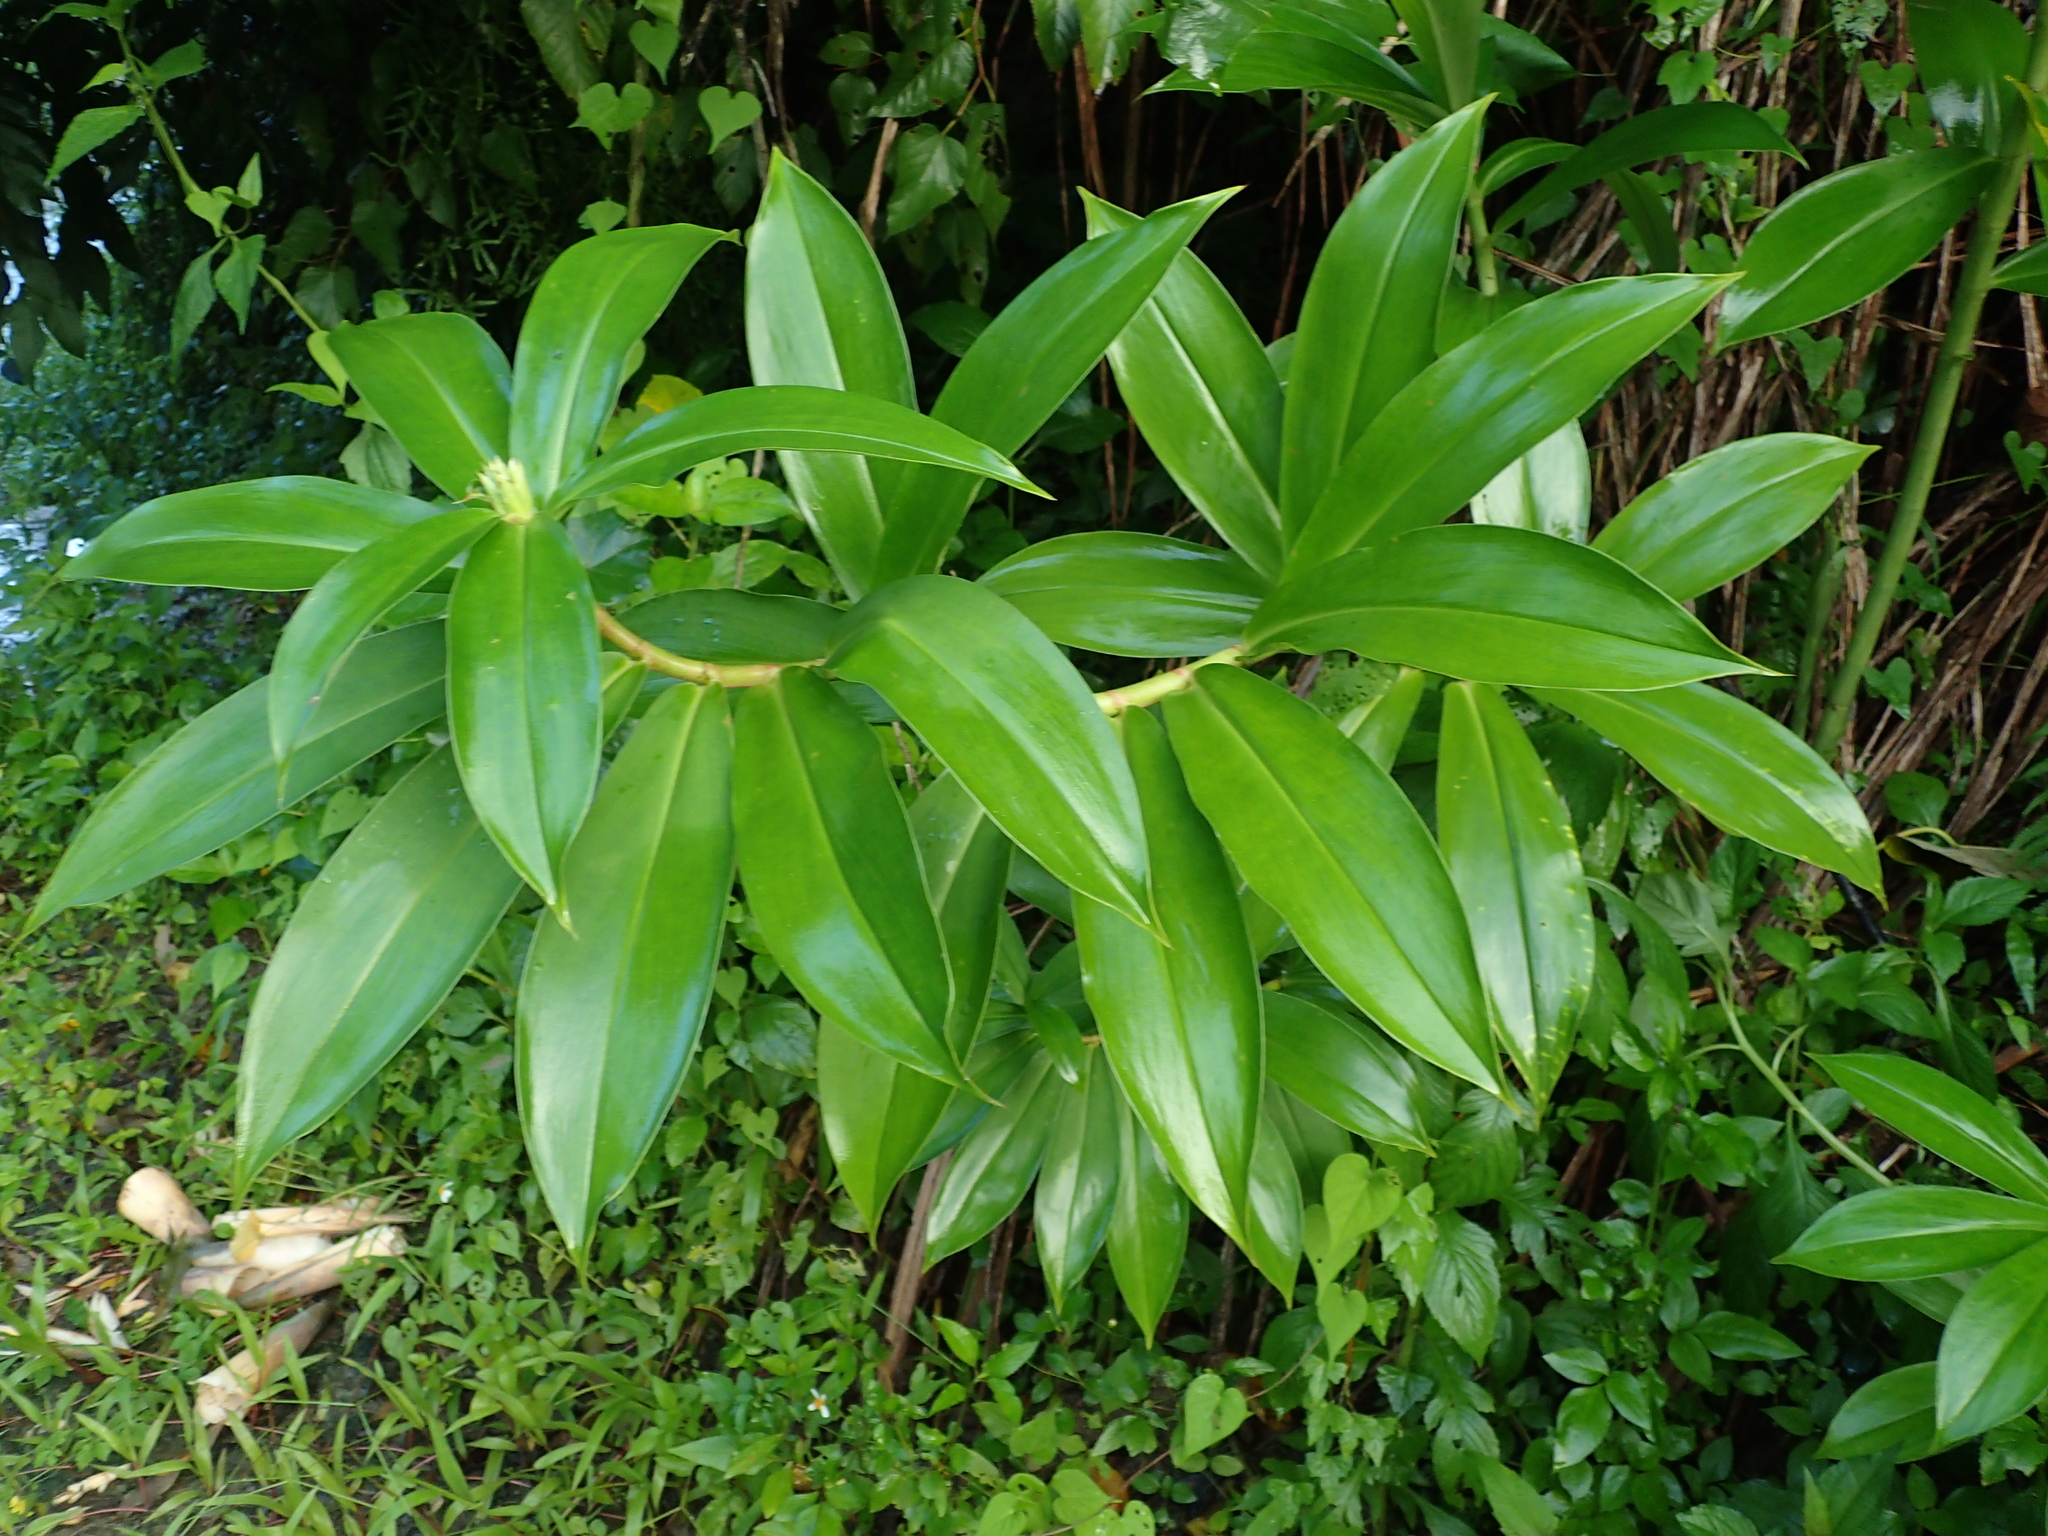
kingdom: Plantae
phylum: Tracheophyta
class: Liliopsida
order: Zingiberales
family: Costaceae
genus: Hellenia
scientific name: Hellenia speciosa
